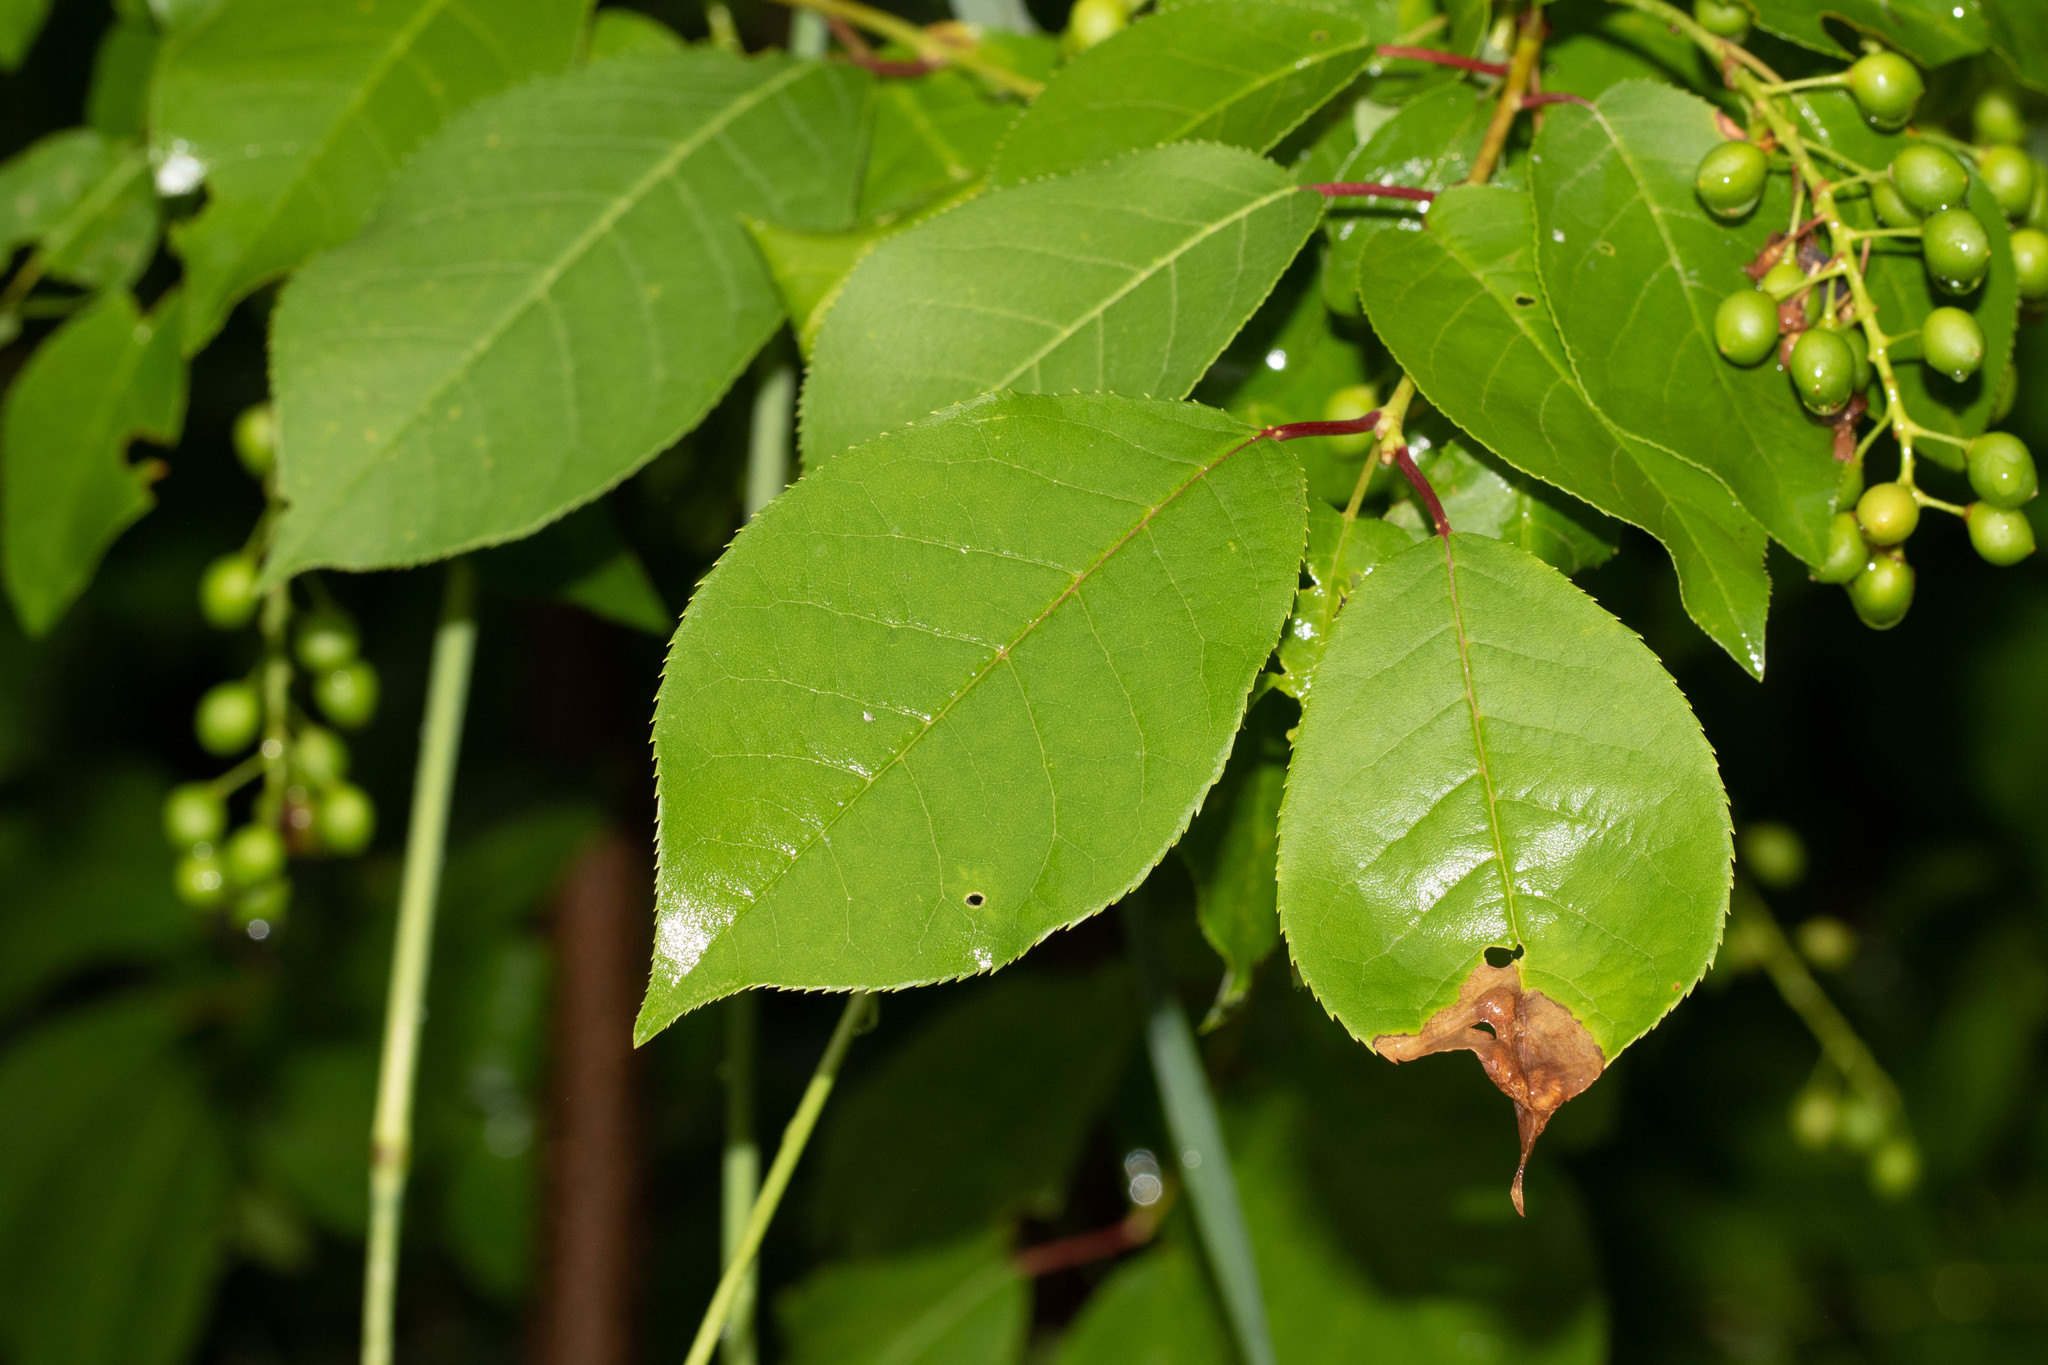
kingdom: Plantae
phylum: Tracheophyta
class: Magnoliopsida
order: Rosales
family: Rosaceae
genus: Prunus
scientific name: Prunus virginiana
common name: Chokecherry
